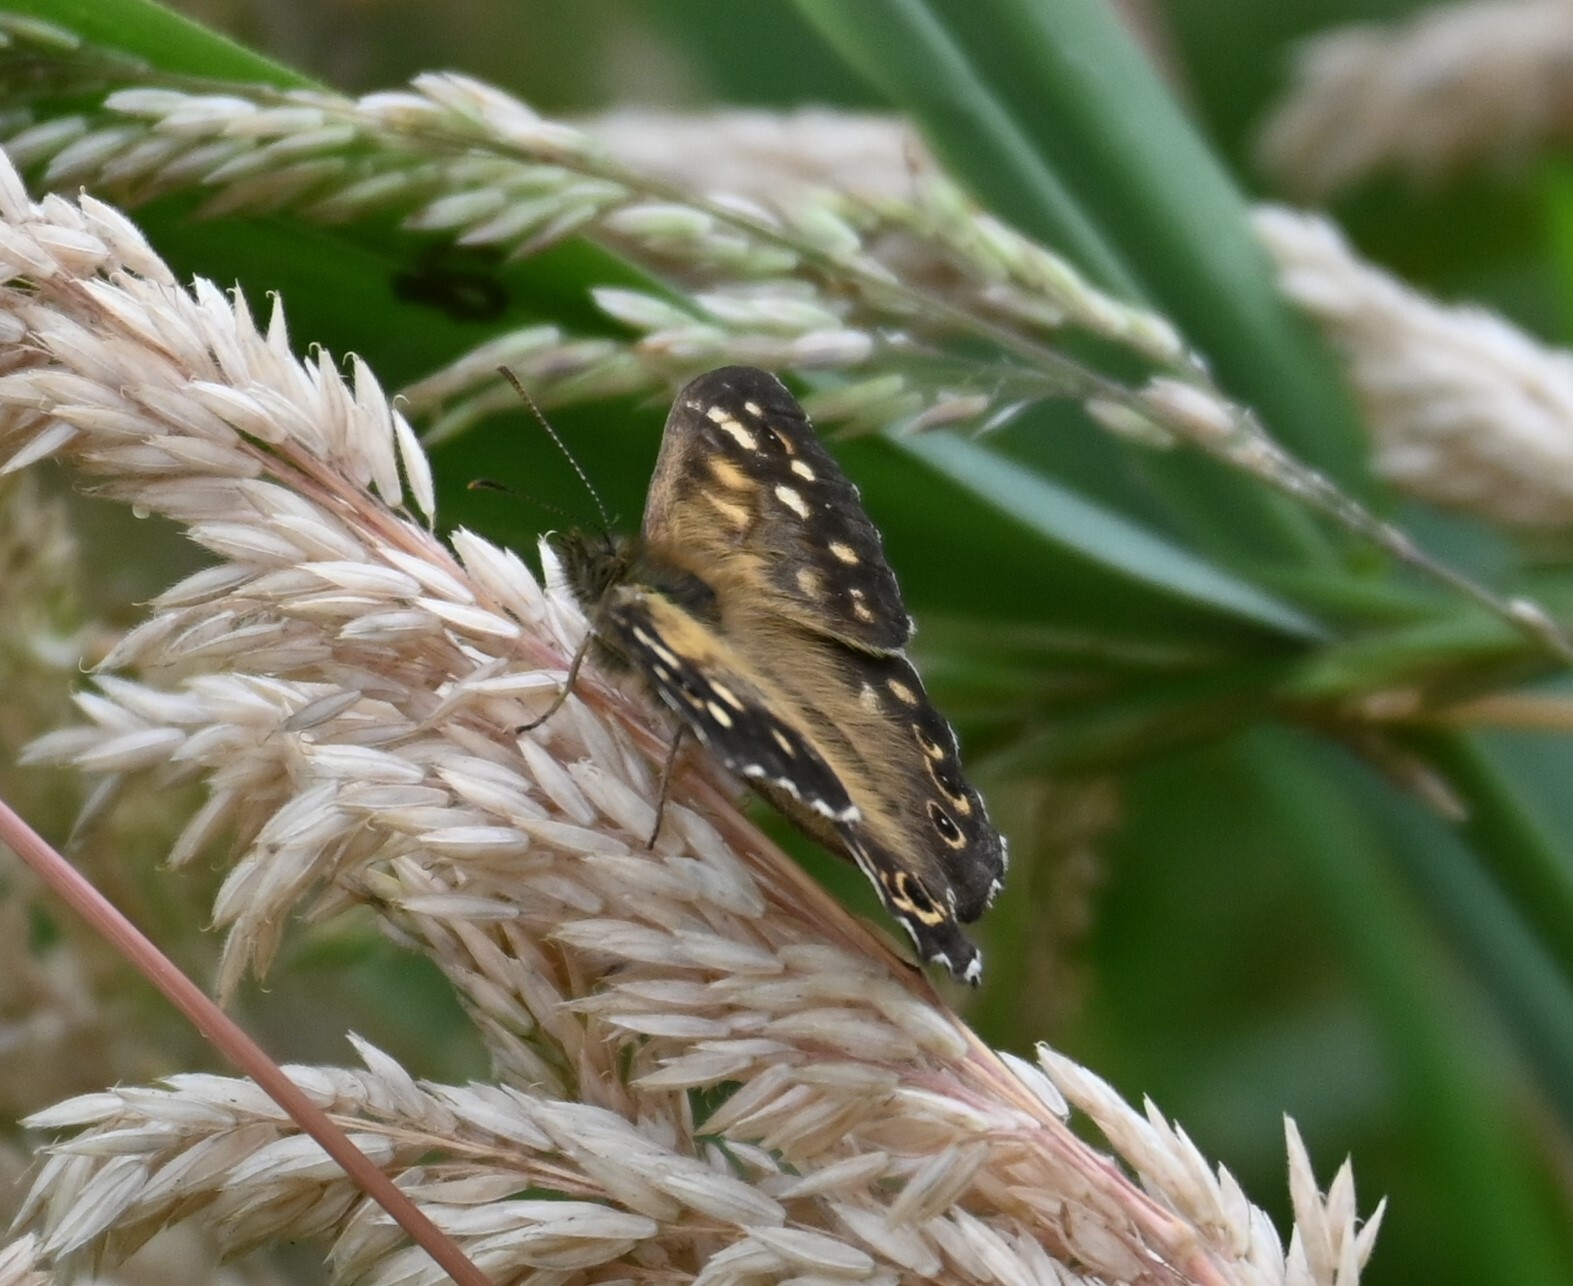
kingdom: Animalia
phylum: Arthropoda
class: Insecta
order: Lepidoptera
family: Nymphalidae
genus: Pararge
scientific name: Pararge aegeria
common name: Speckled wood
